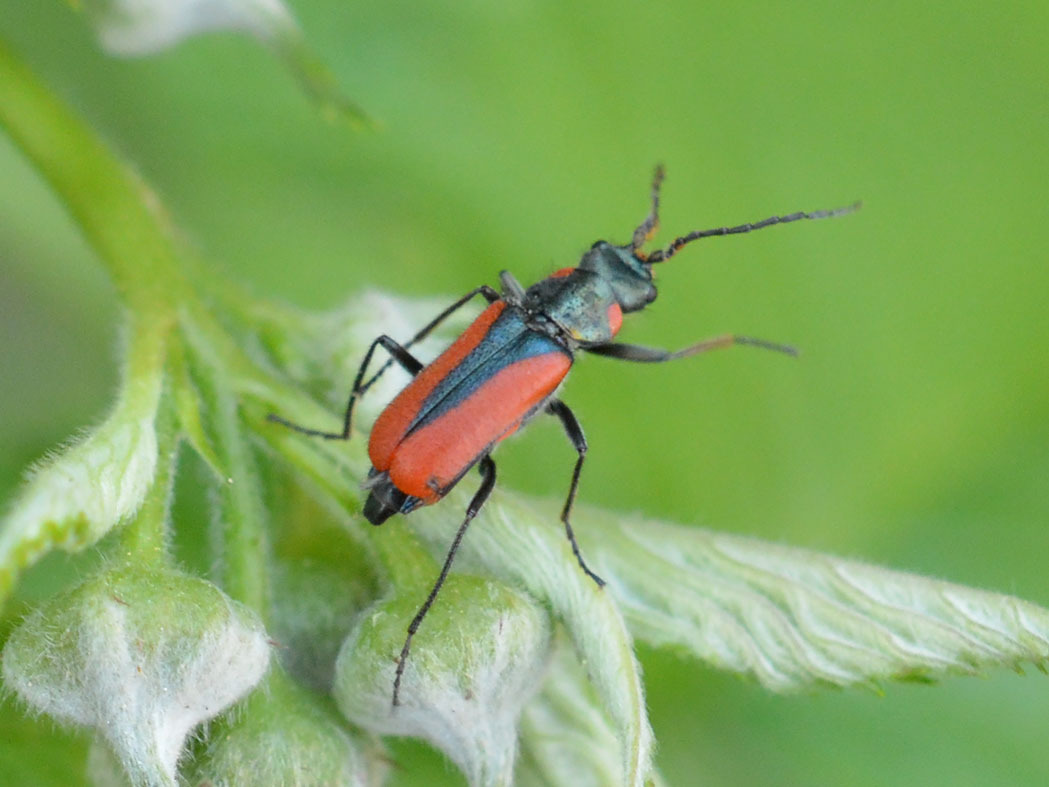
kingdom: Animalia
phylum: Arthropoda
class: Insecta
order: Coleoptera
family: Melyridae
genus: Malachius
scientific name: Malachius
